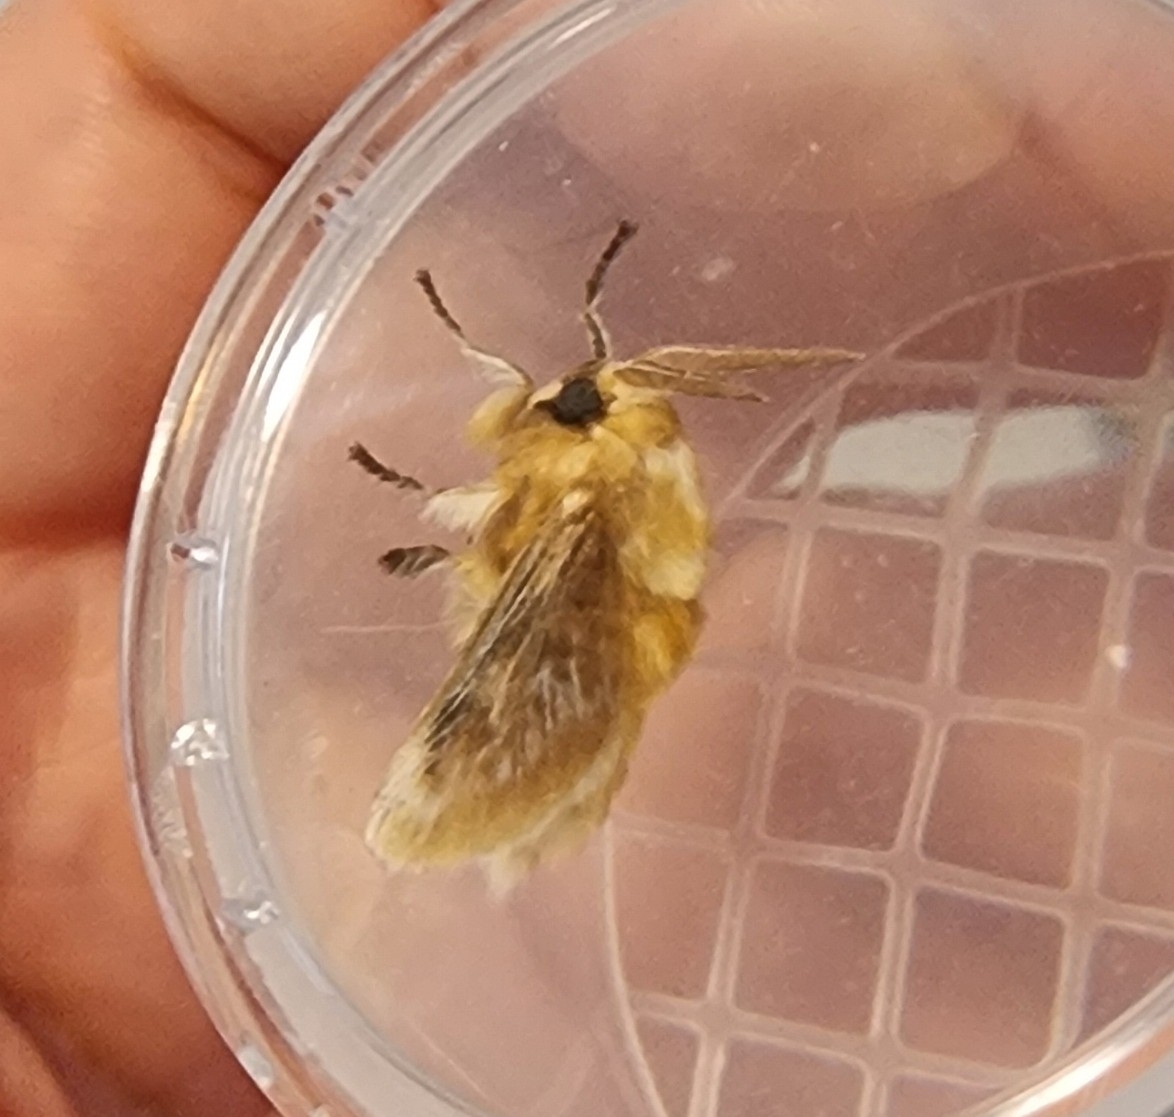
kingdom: Animalia
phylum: Arthropoda
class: Insecta
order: Lepidoptera
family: Megalopygidae
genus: Megalopyge
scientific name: Megalopyge opercularis
